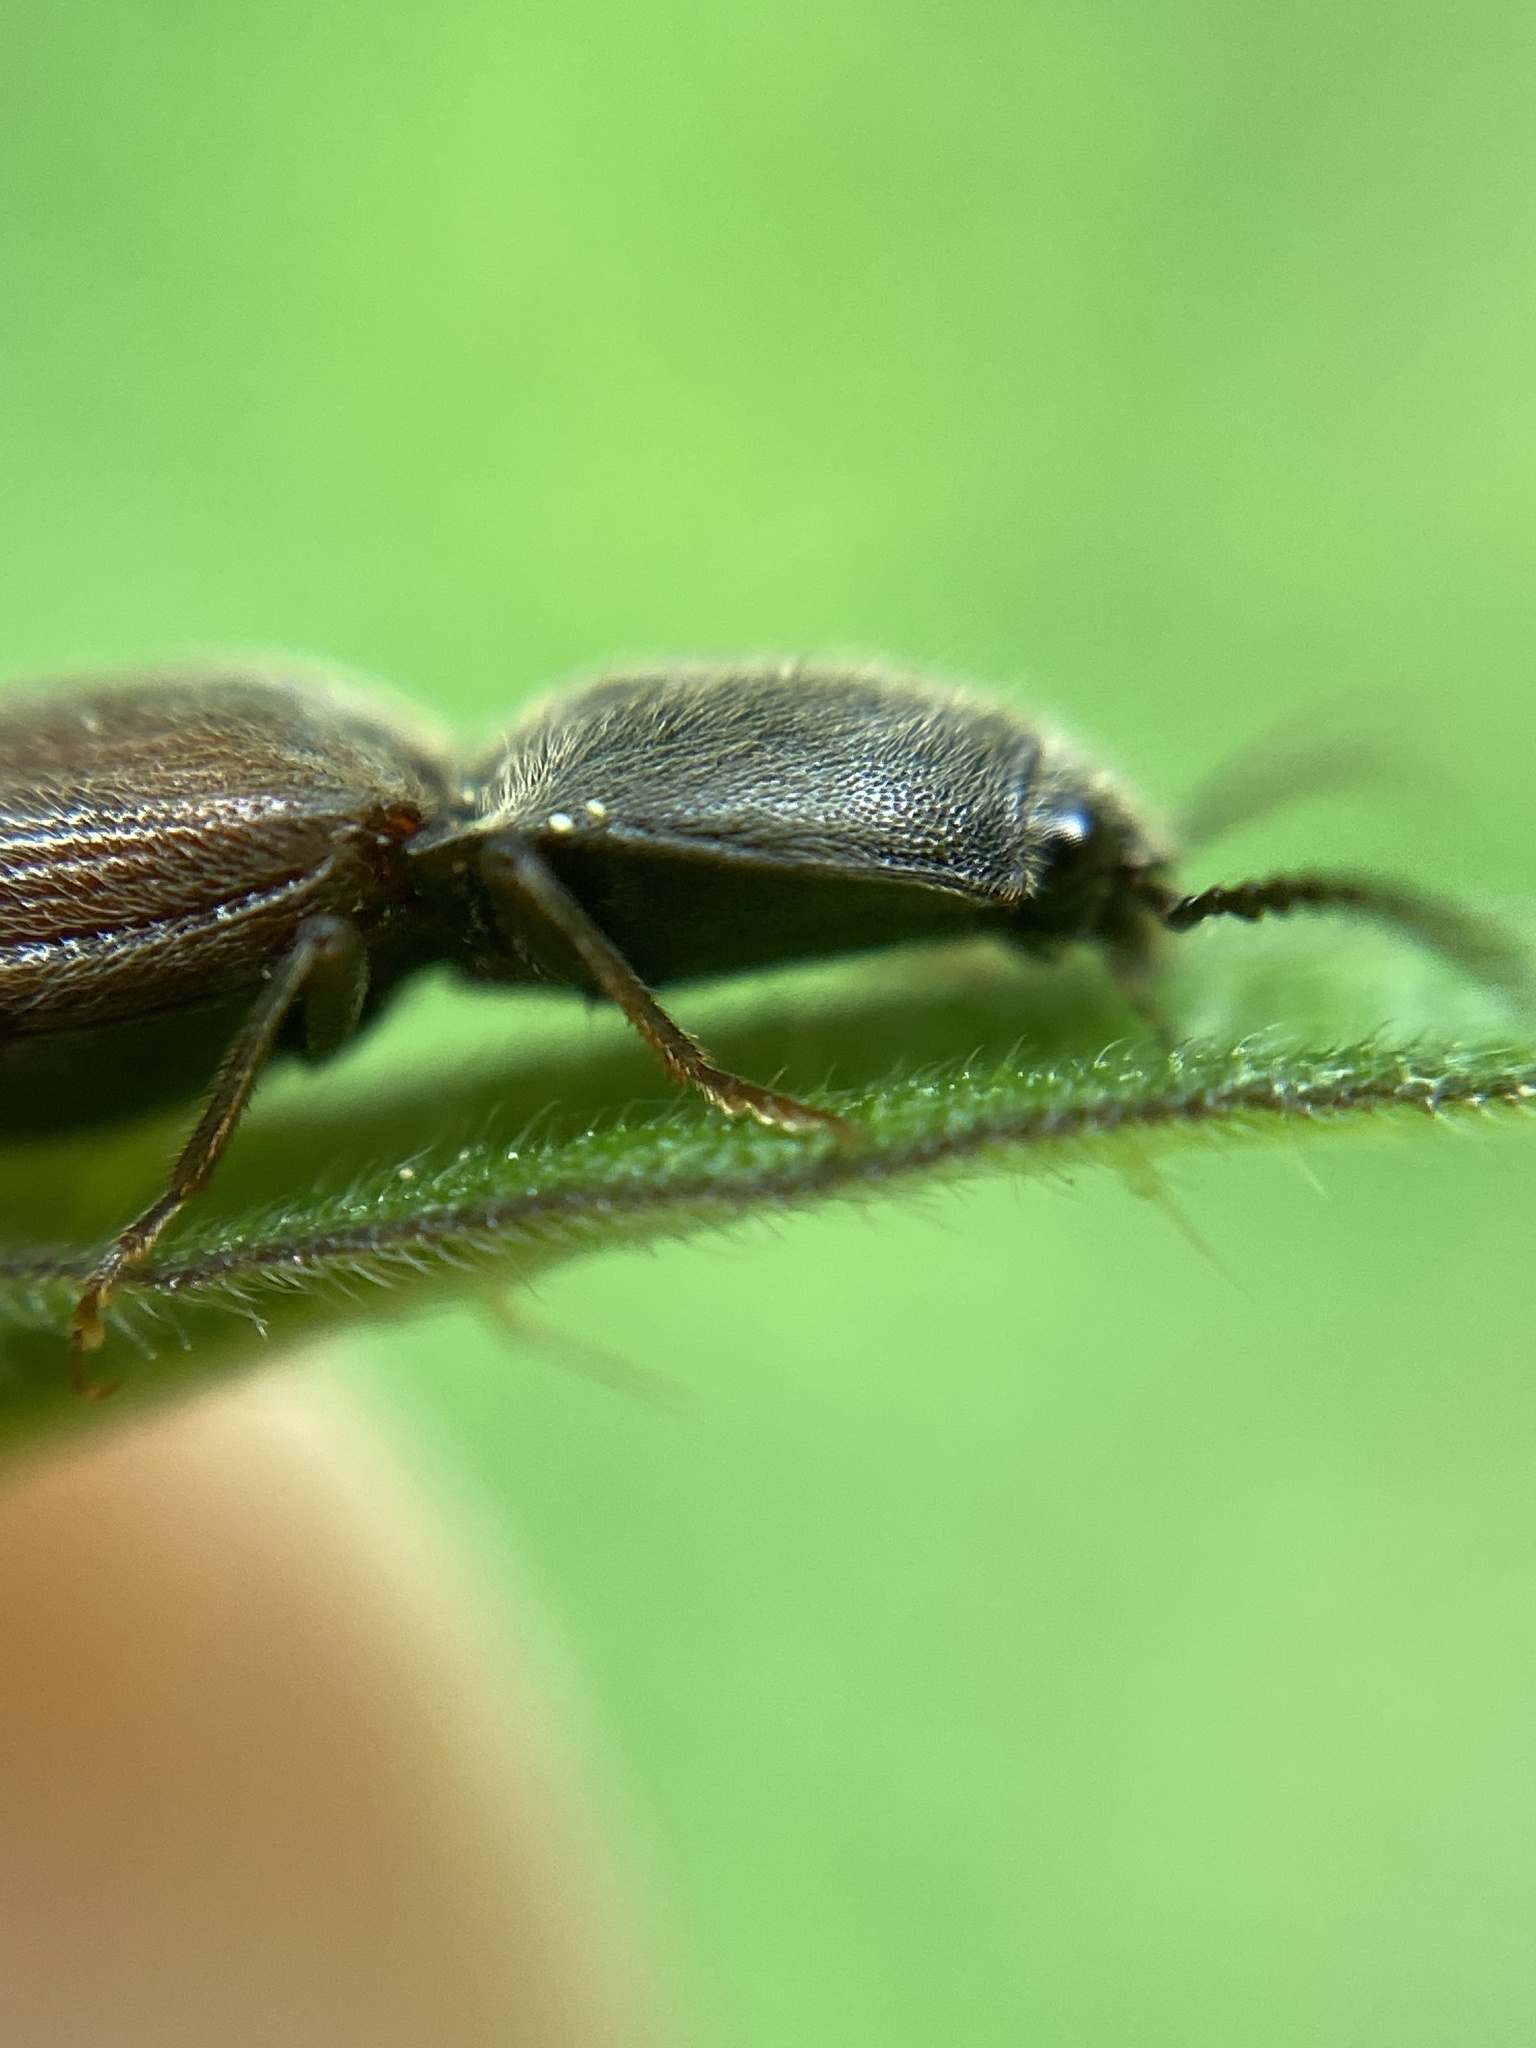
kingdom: Animalia
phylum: Arthropoda
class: Insecta
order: Coleoptera
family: Elateridae
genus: Athous
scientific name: Athous haemorrhoidalis
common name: Red-brown click beetle
